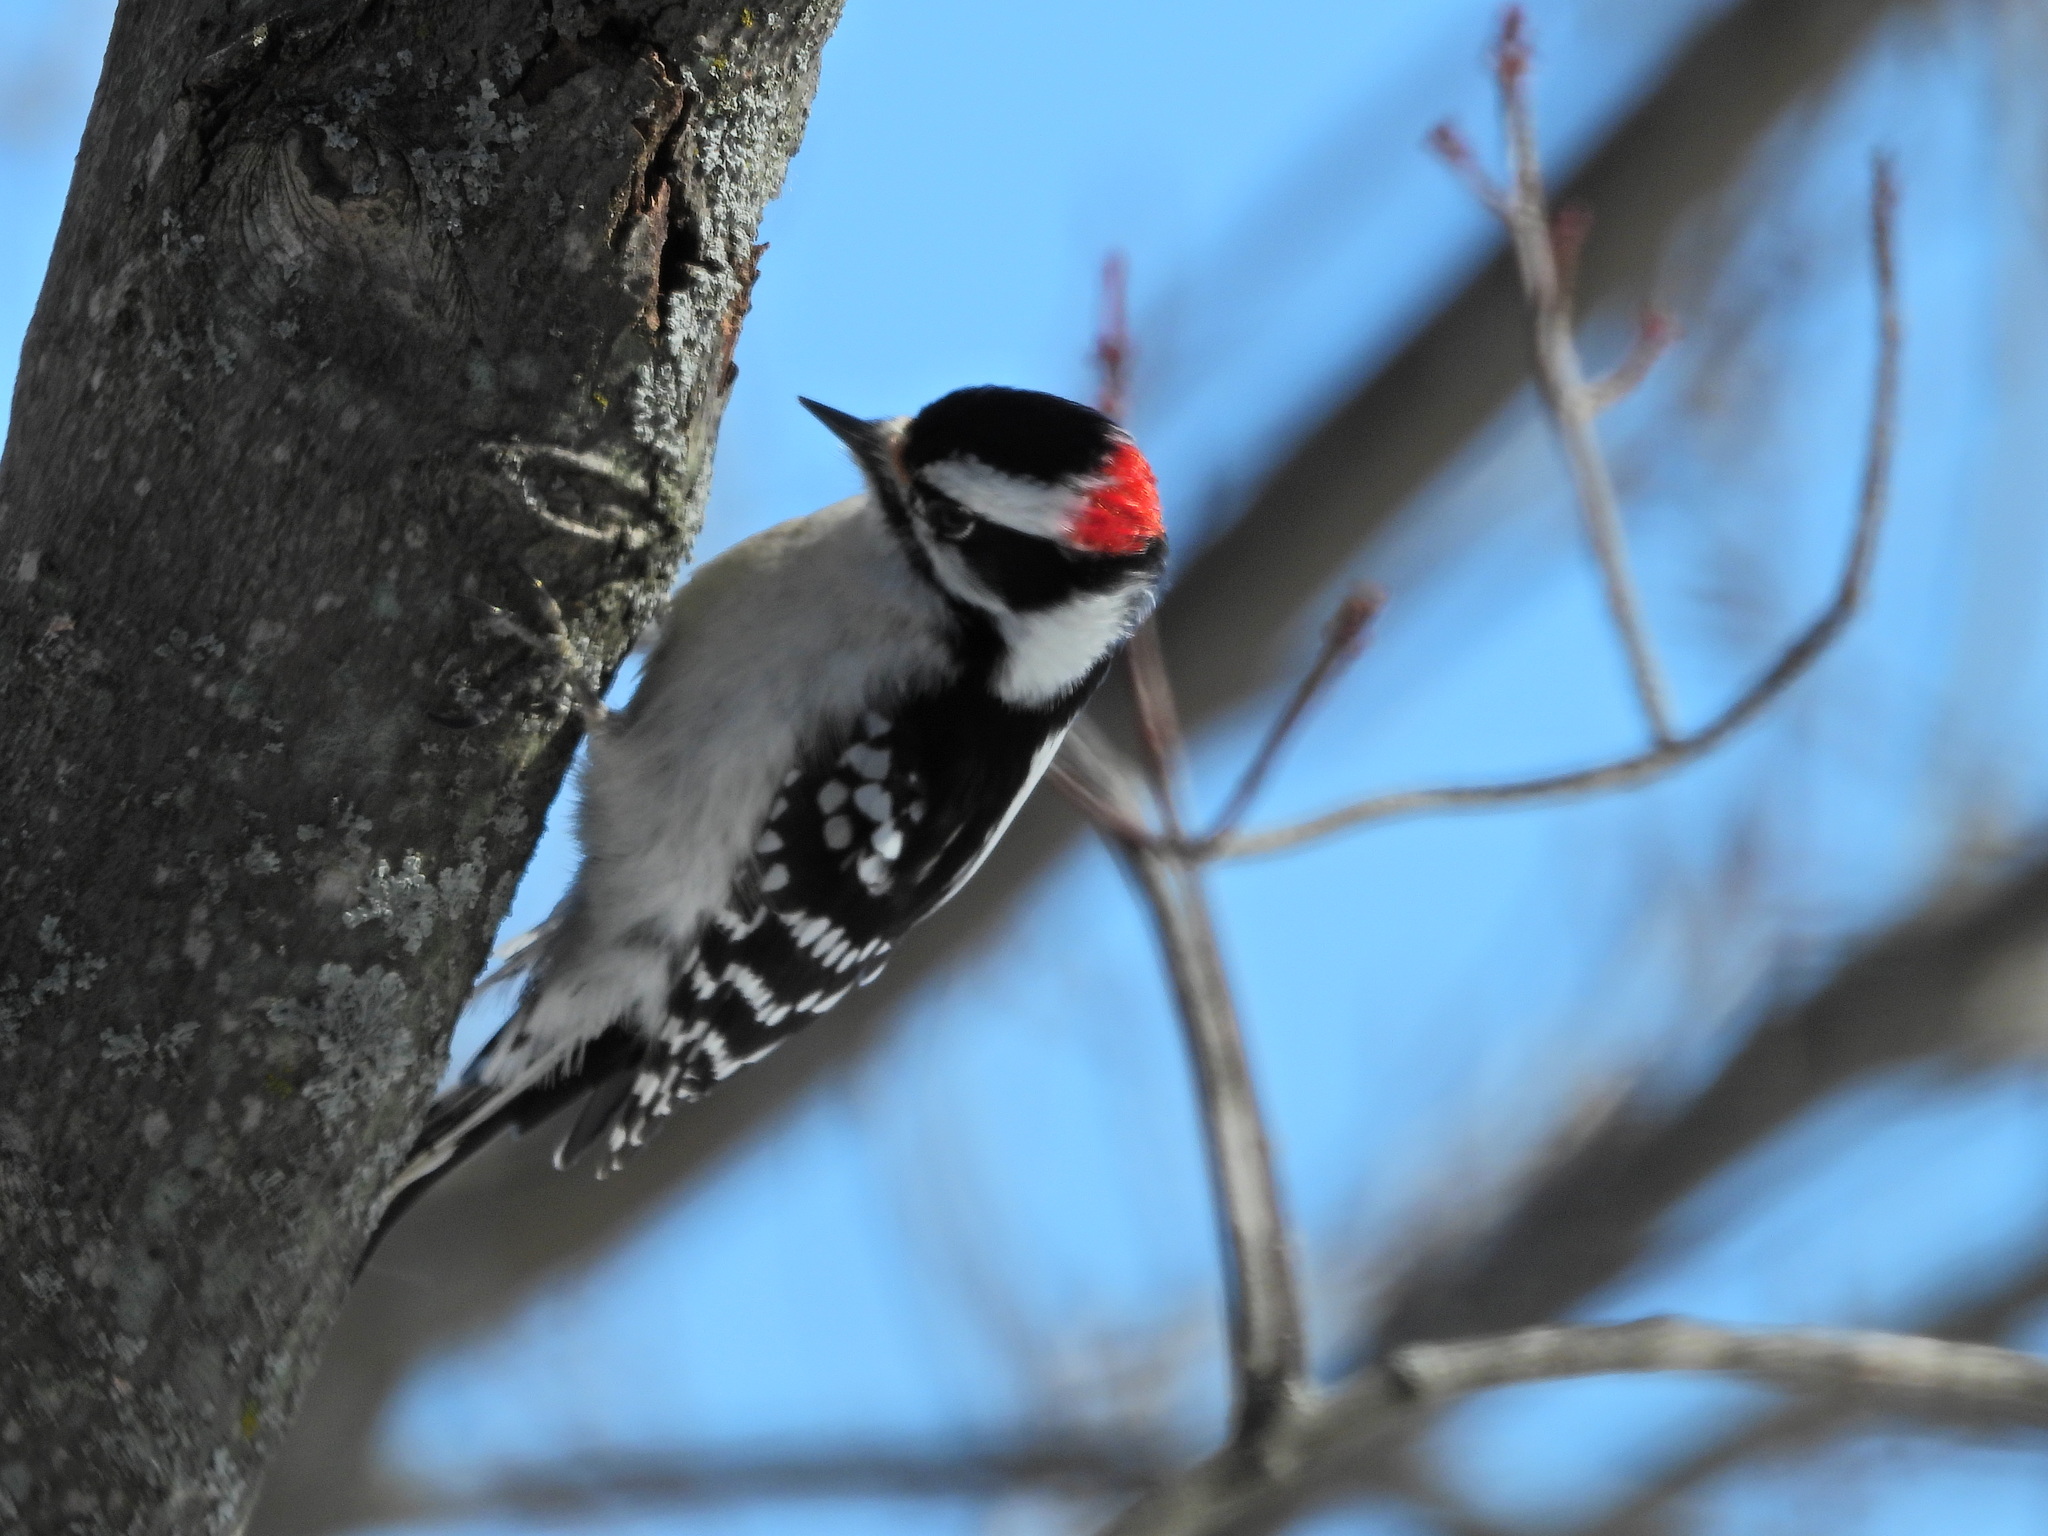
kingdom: Animalia
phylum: Chordata
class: Aves
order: Piciformes
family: Picidae
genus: Dryobates
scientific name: Dryobates pubescens
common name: Downy woodpecker
